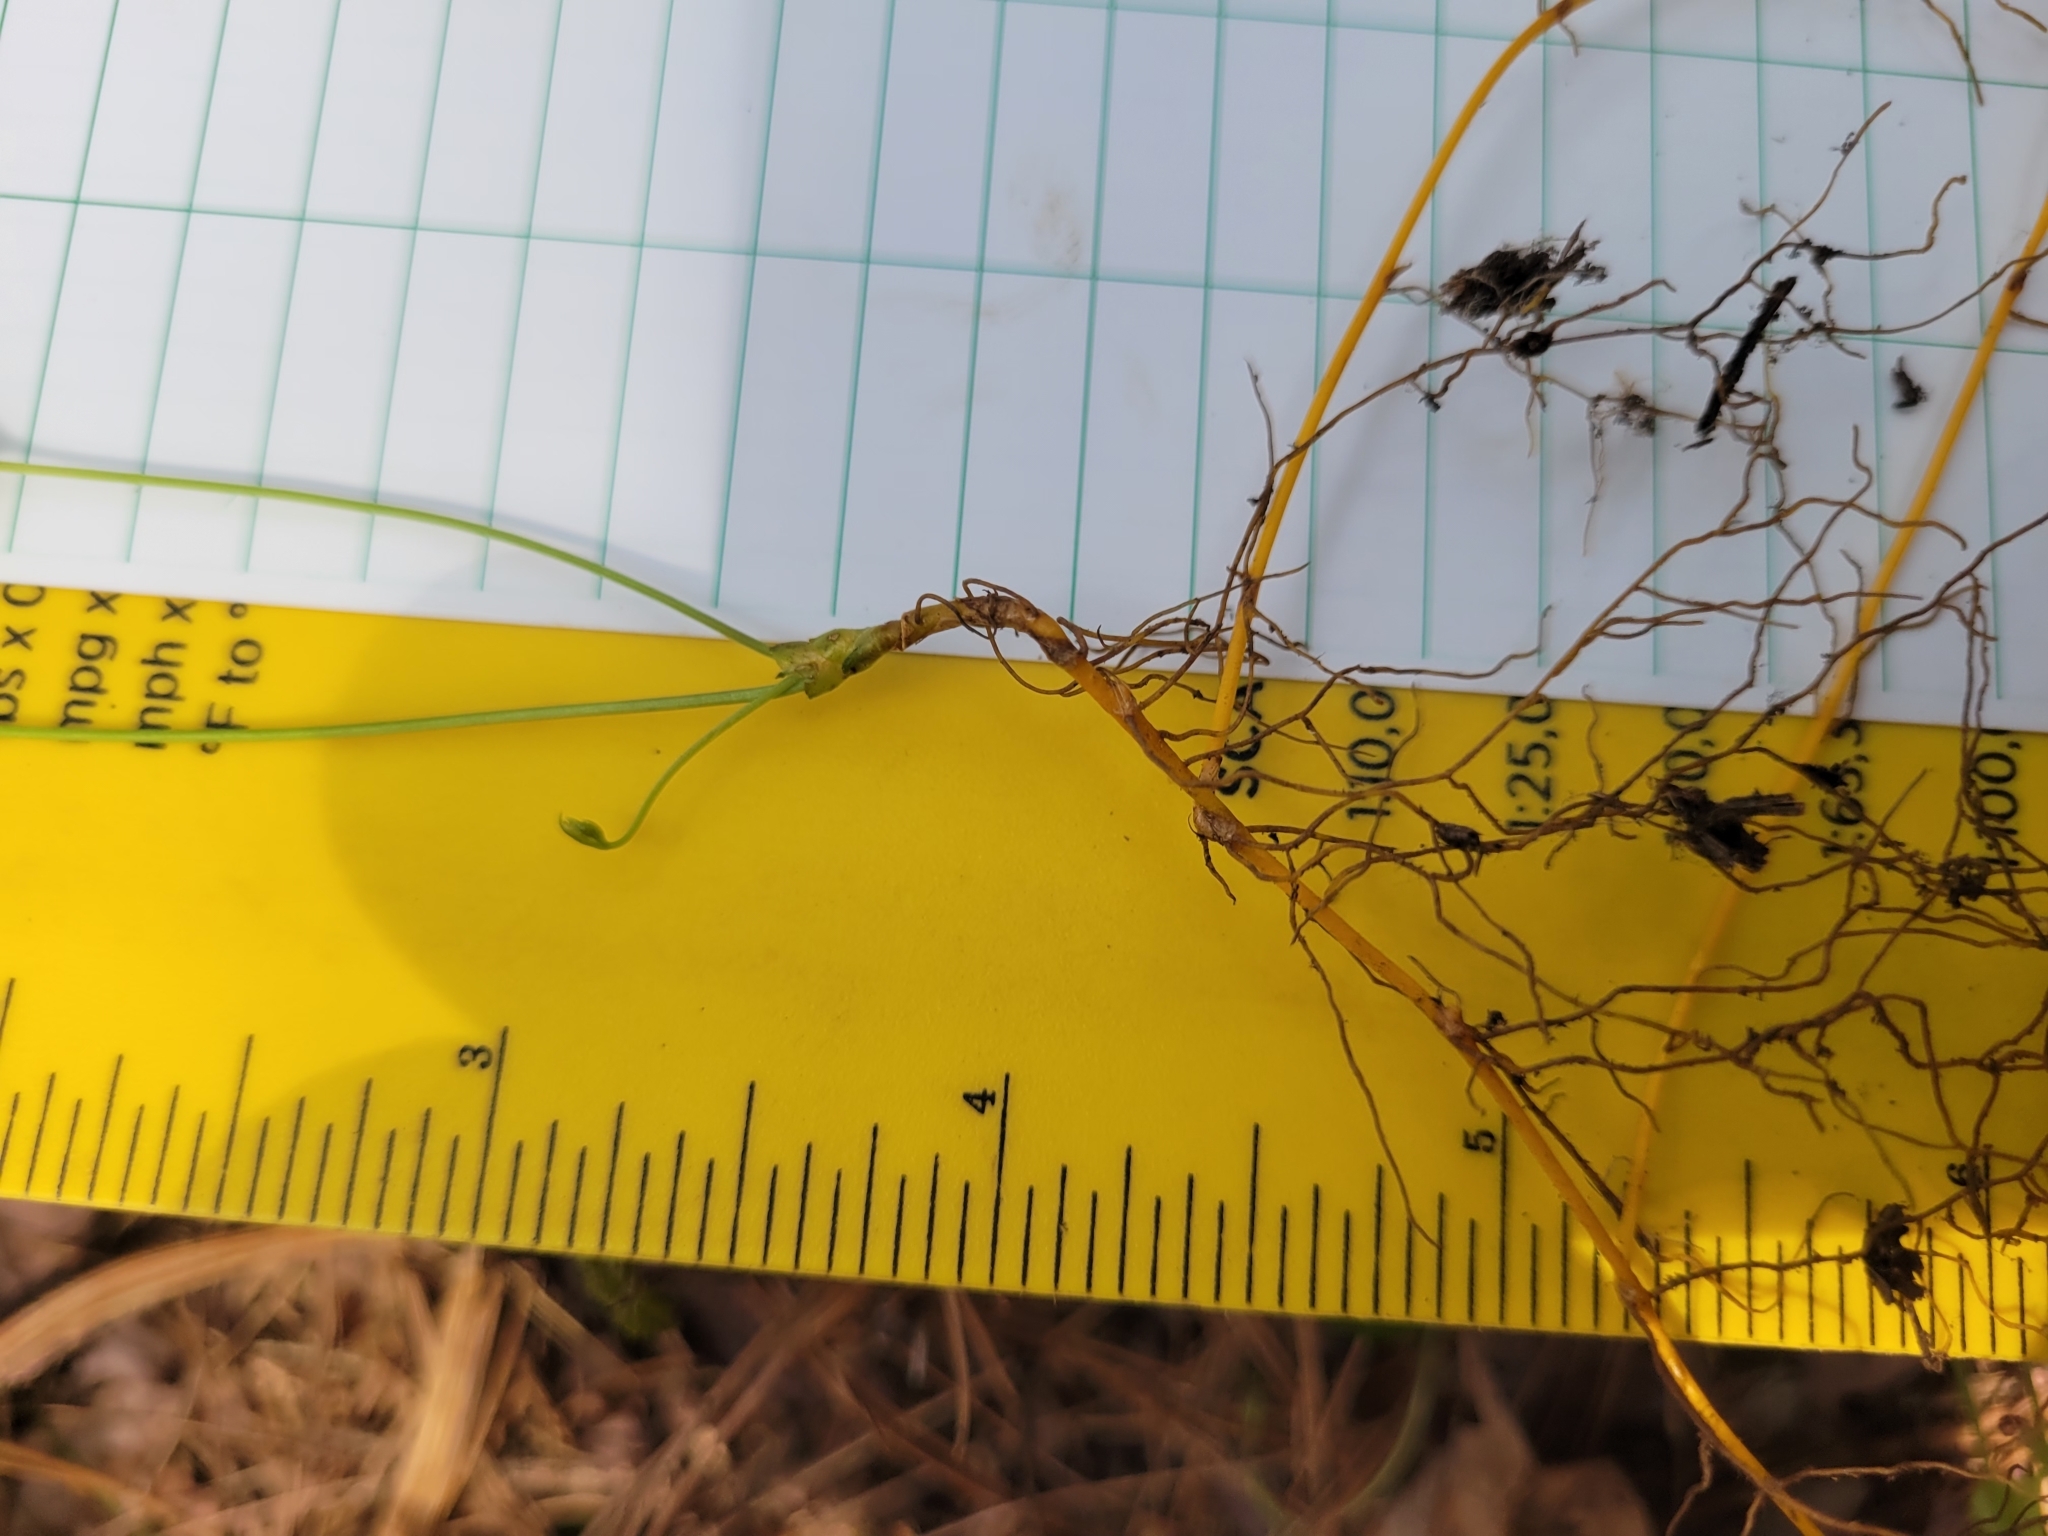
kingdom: Plantae
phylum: Tracheophyta
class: Magnoliopsida
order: Ranunculales
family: Ranunculaceae
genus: Coptis
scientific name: Coptis trifolia
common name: Canker-root
